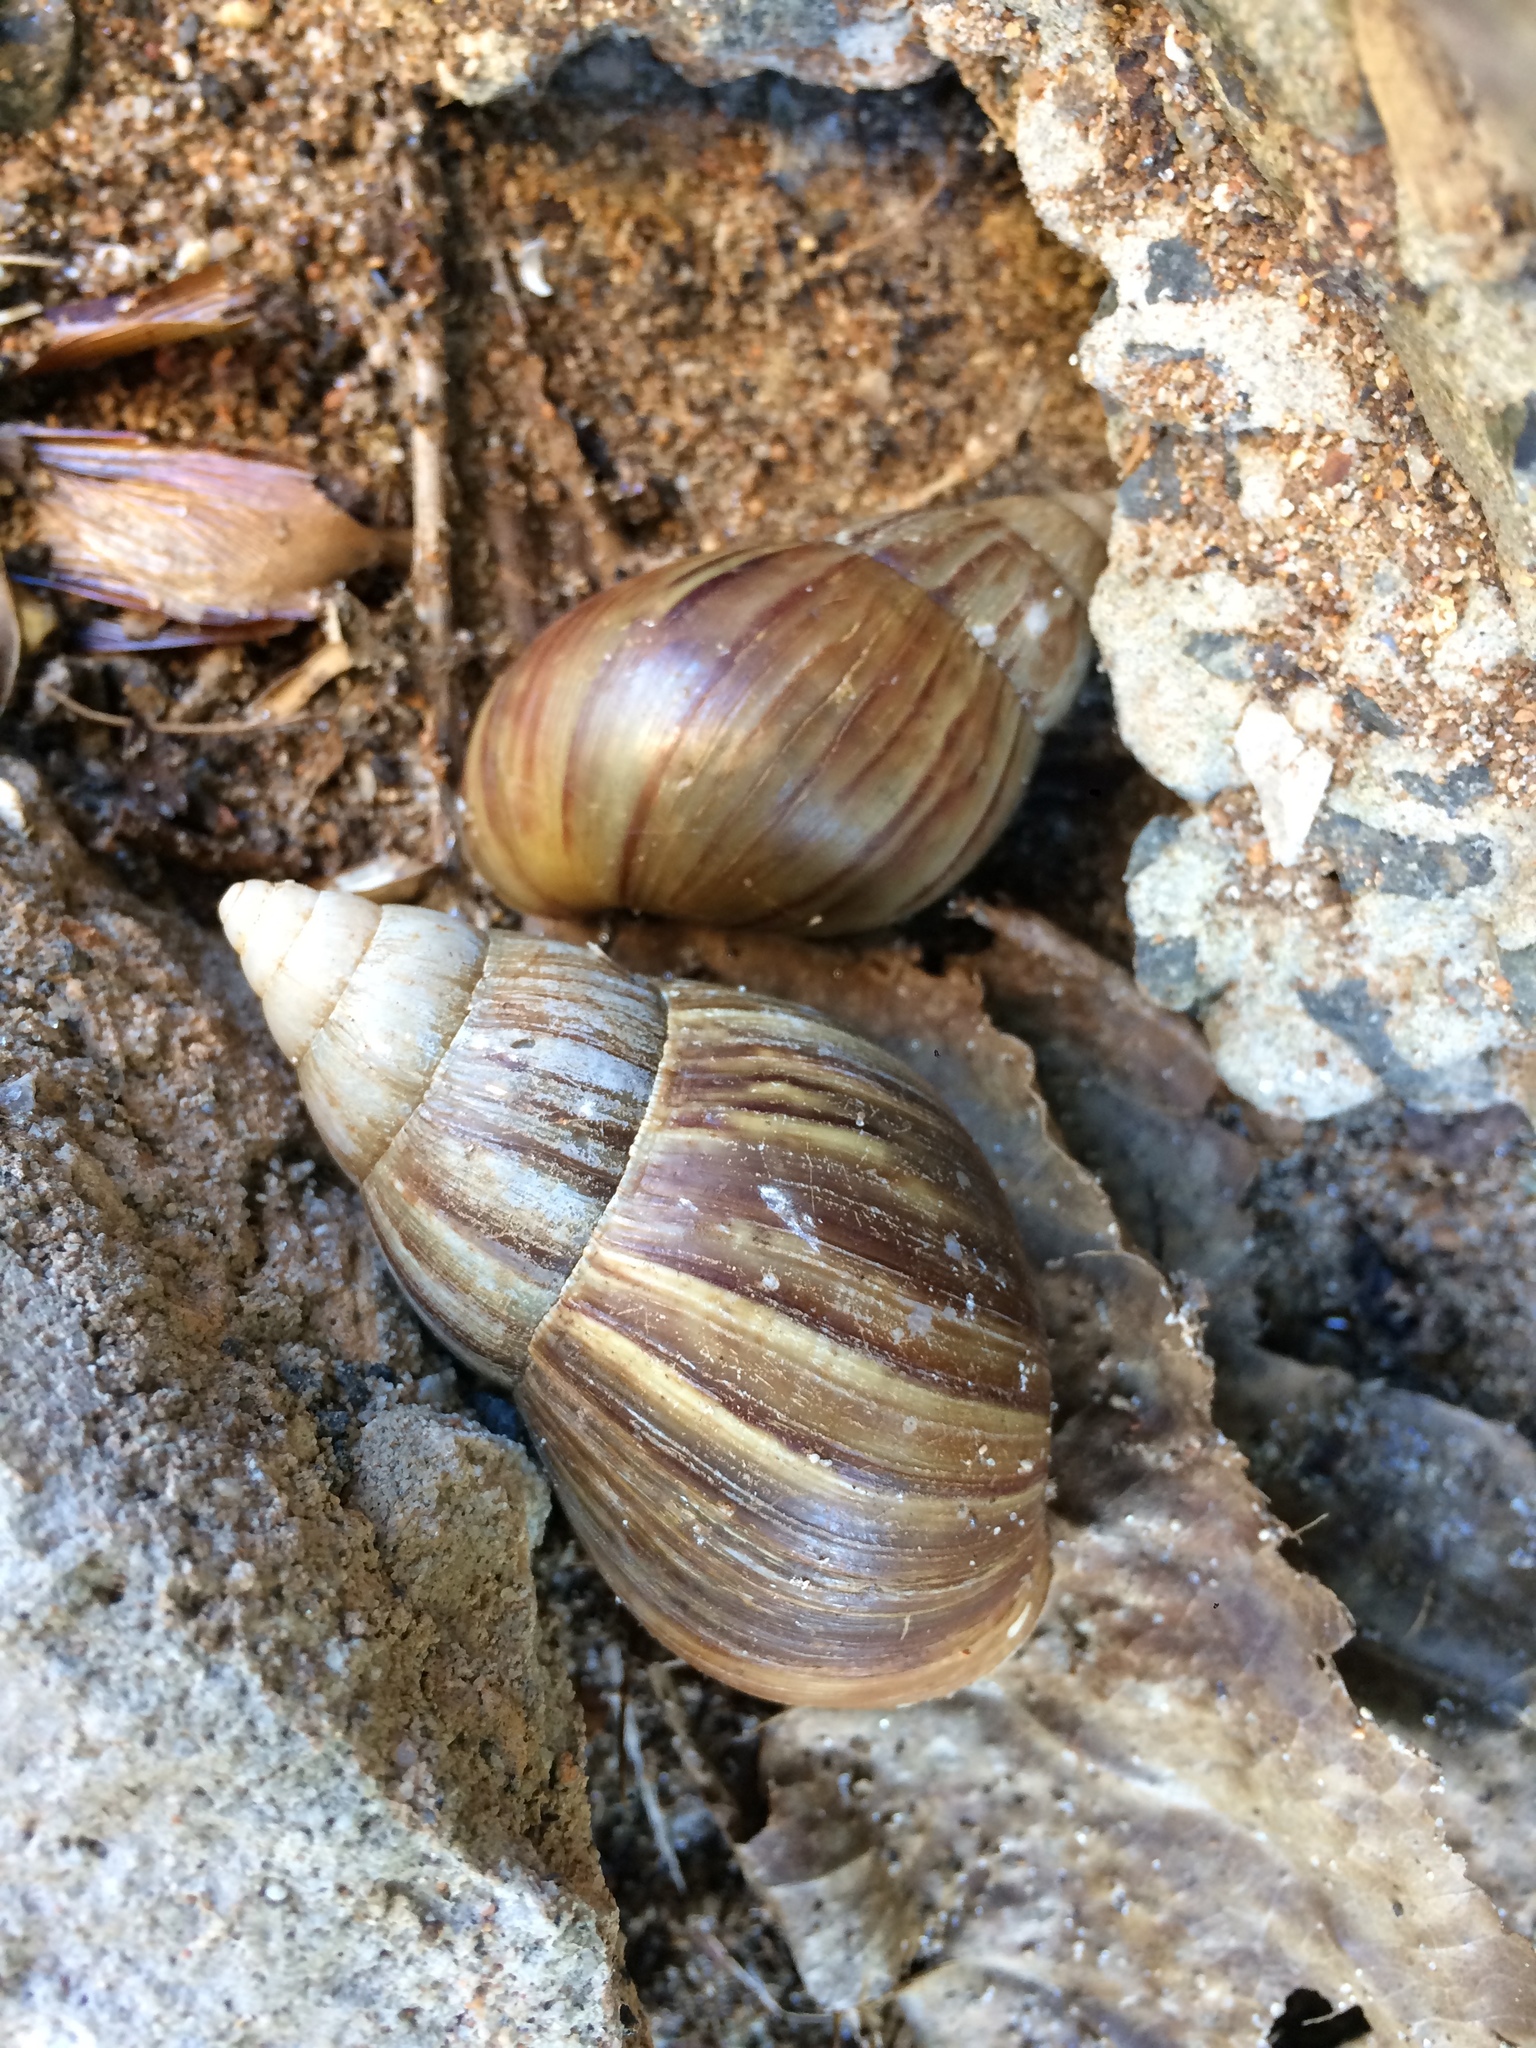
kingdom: Animalia
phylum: Mollusca
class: Gastropoda
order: Stylommatophora
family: Achatinidae
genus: Lissachatina
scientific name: Lissachatina fulica
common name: Giant african snail
